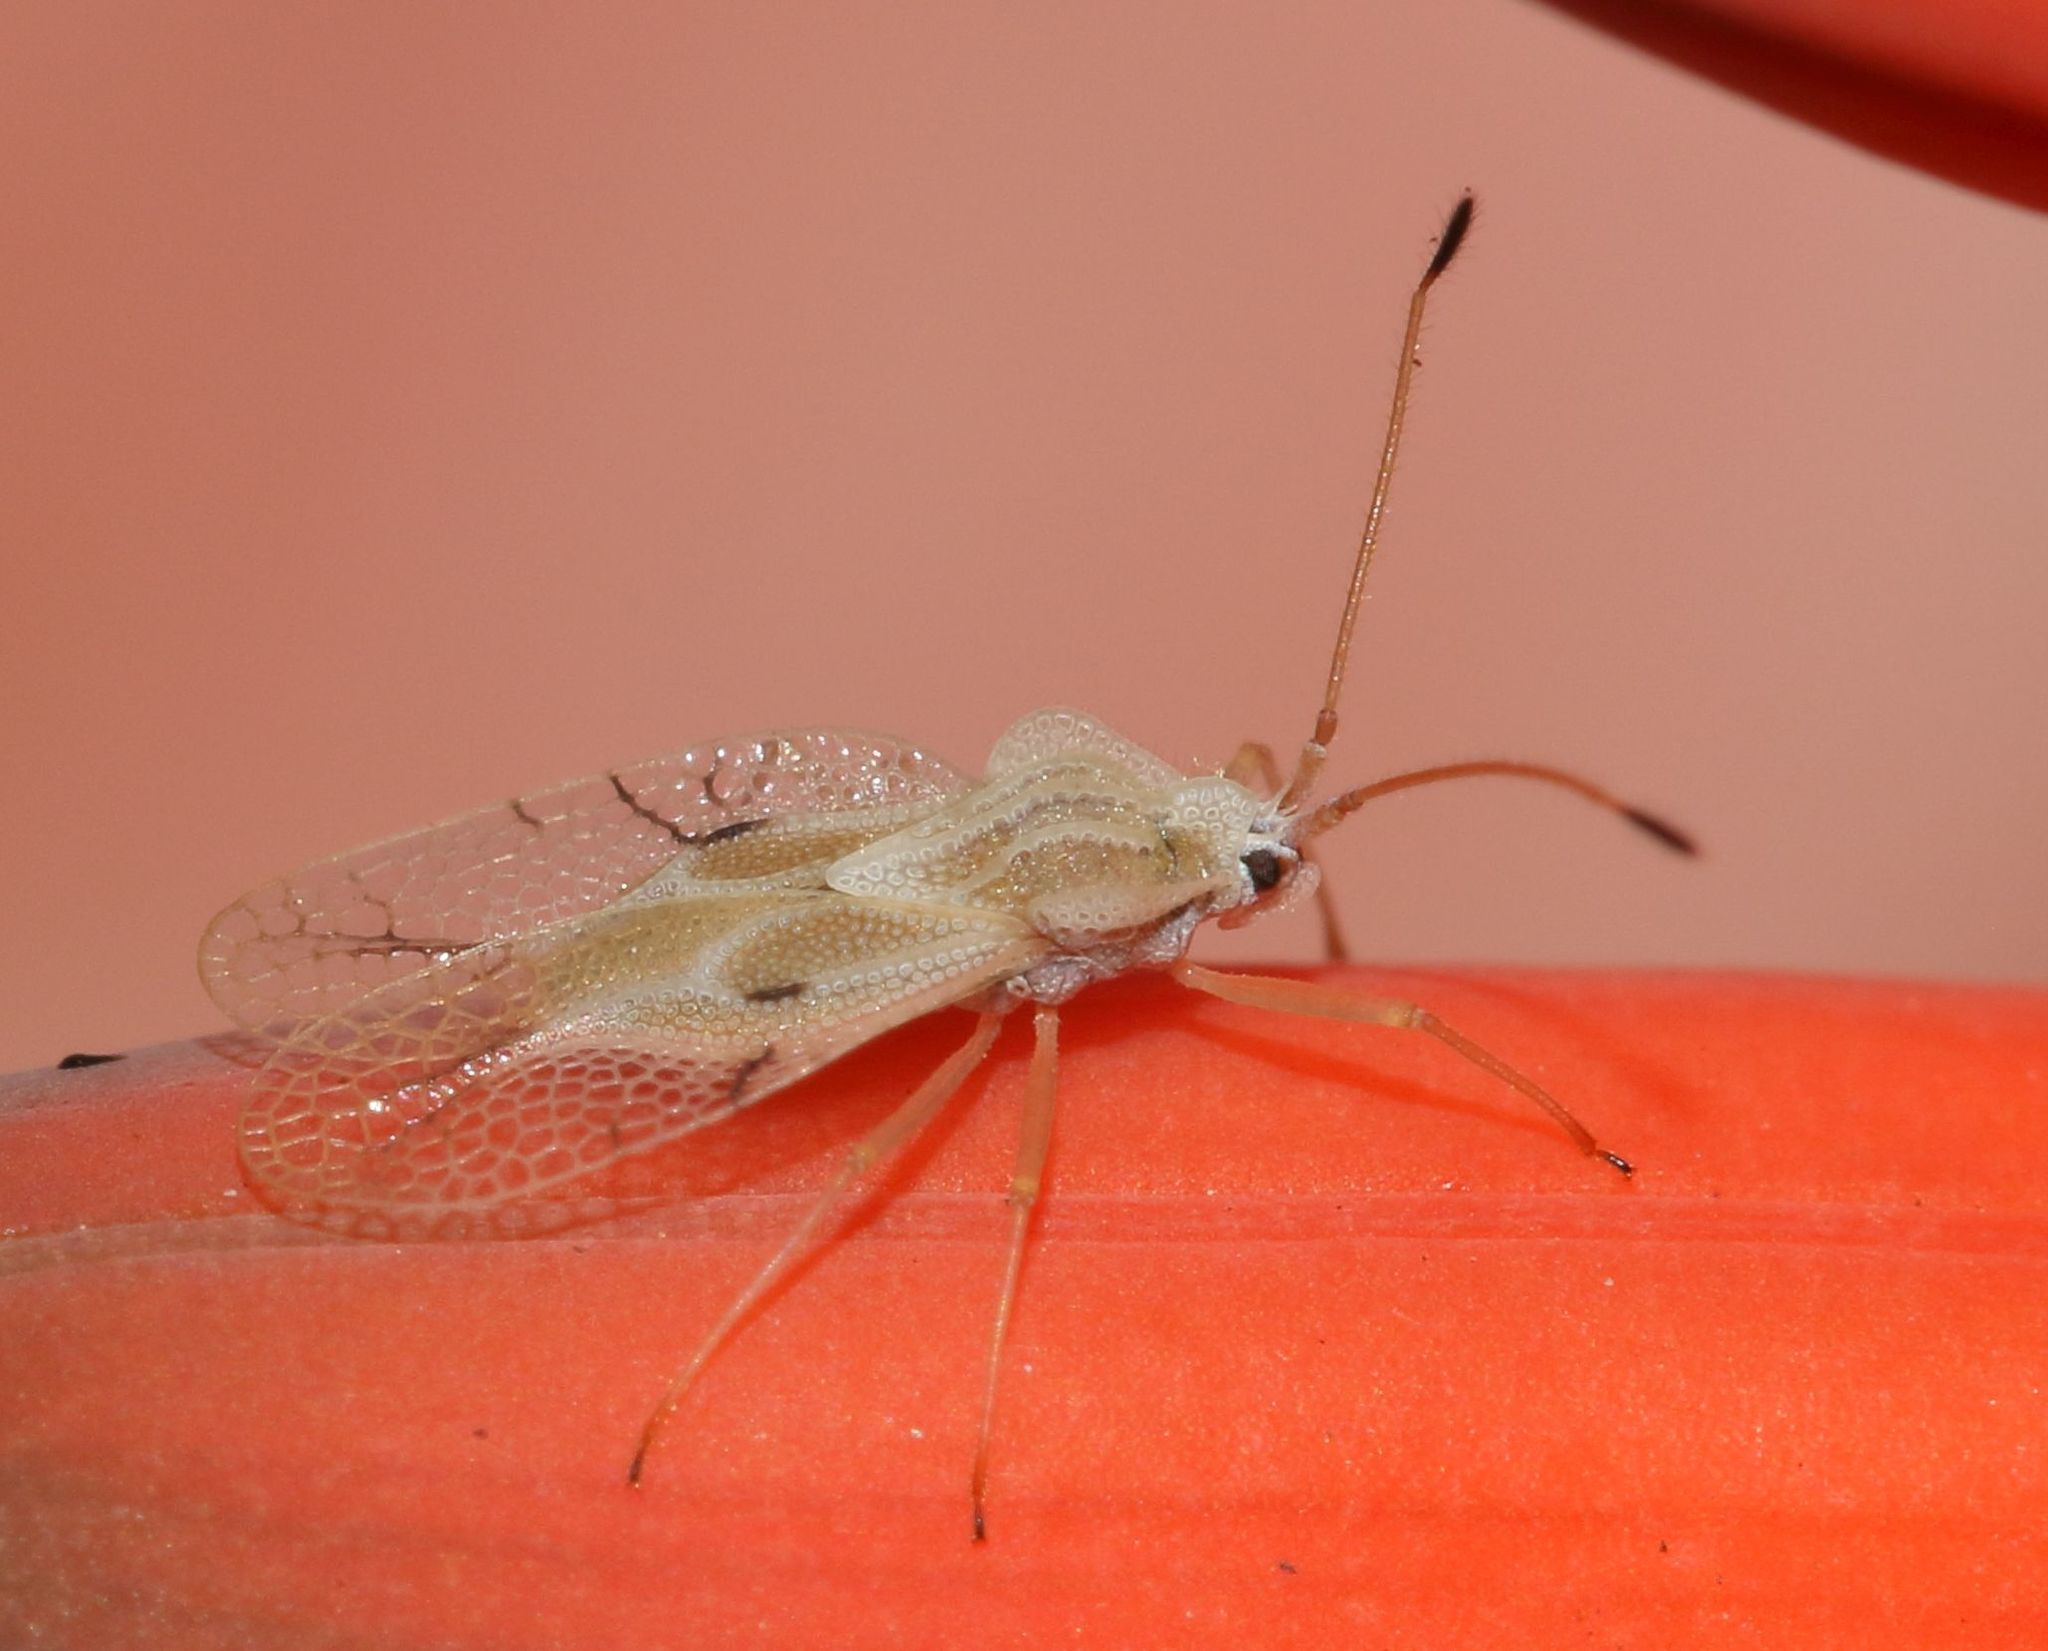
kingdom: Animalia
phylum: Arthropoda
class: Insecta
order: Hemiptera
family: Tingidae
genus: Gargaphia
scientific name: Gargaphia decoris
